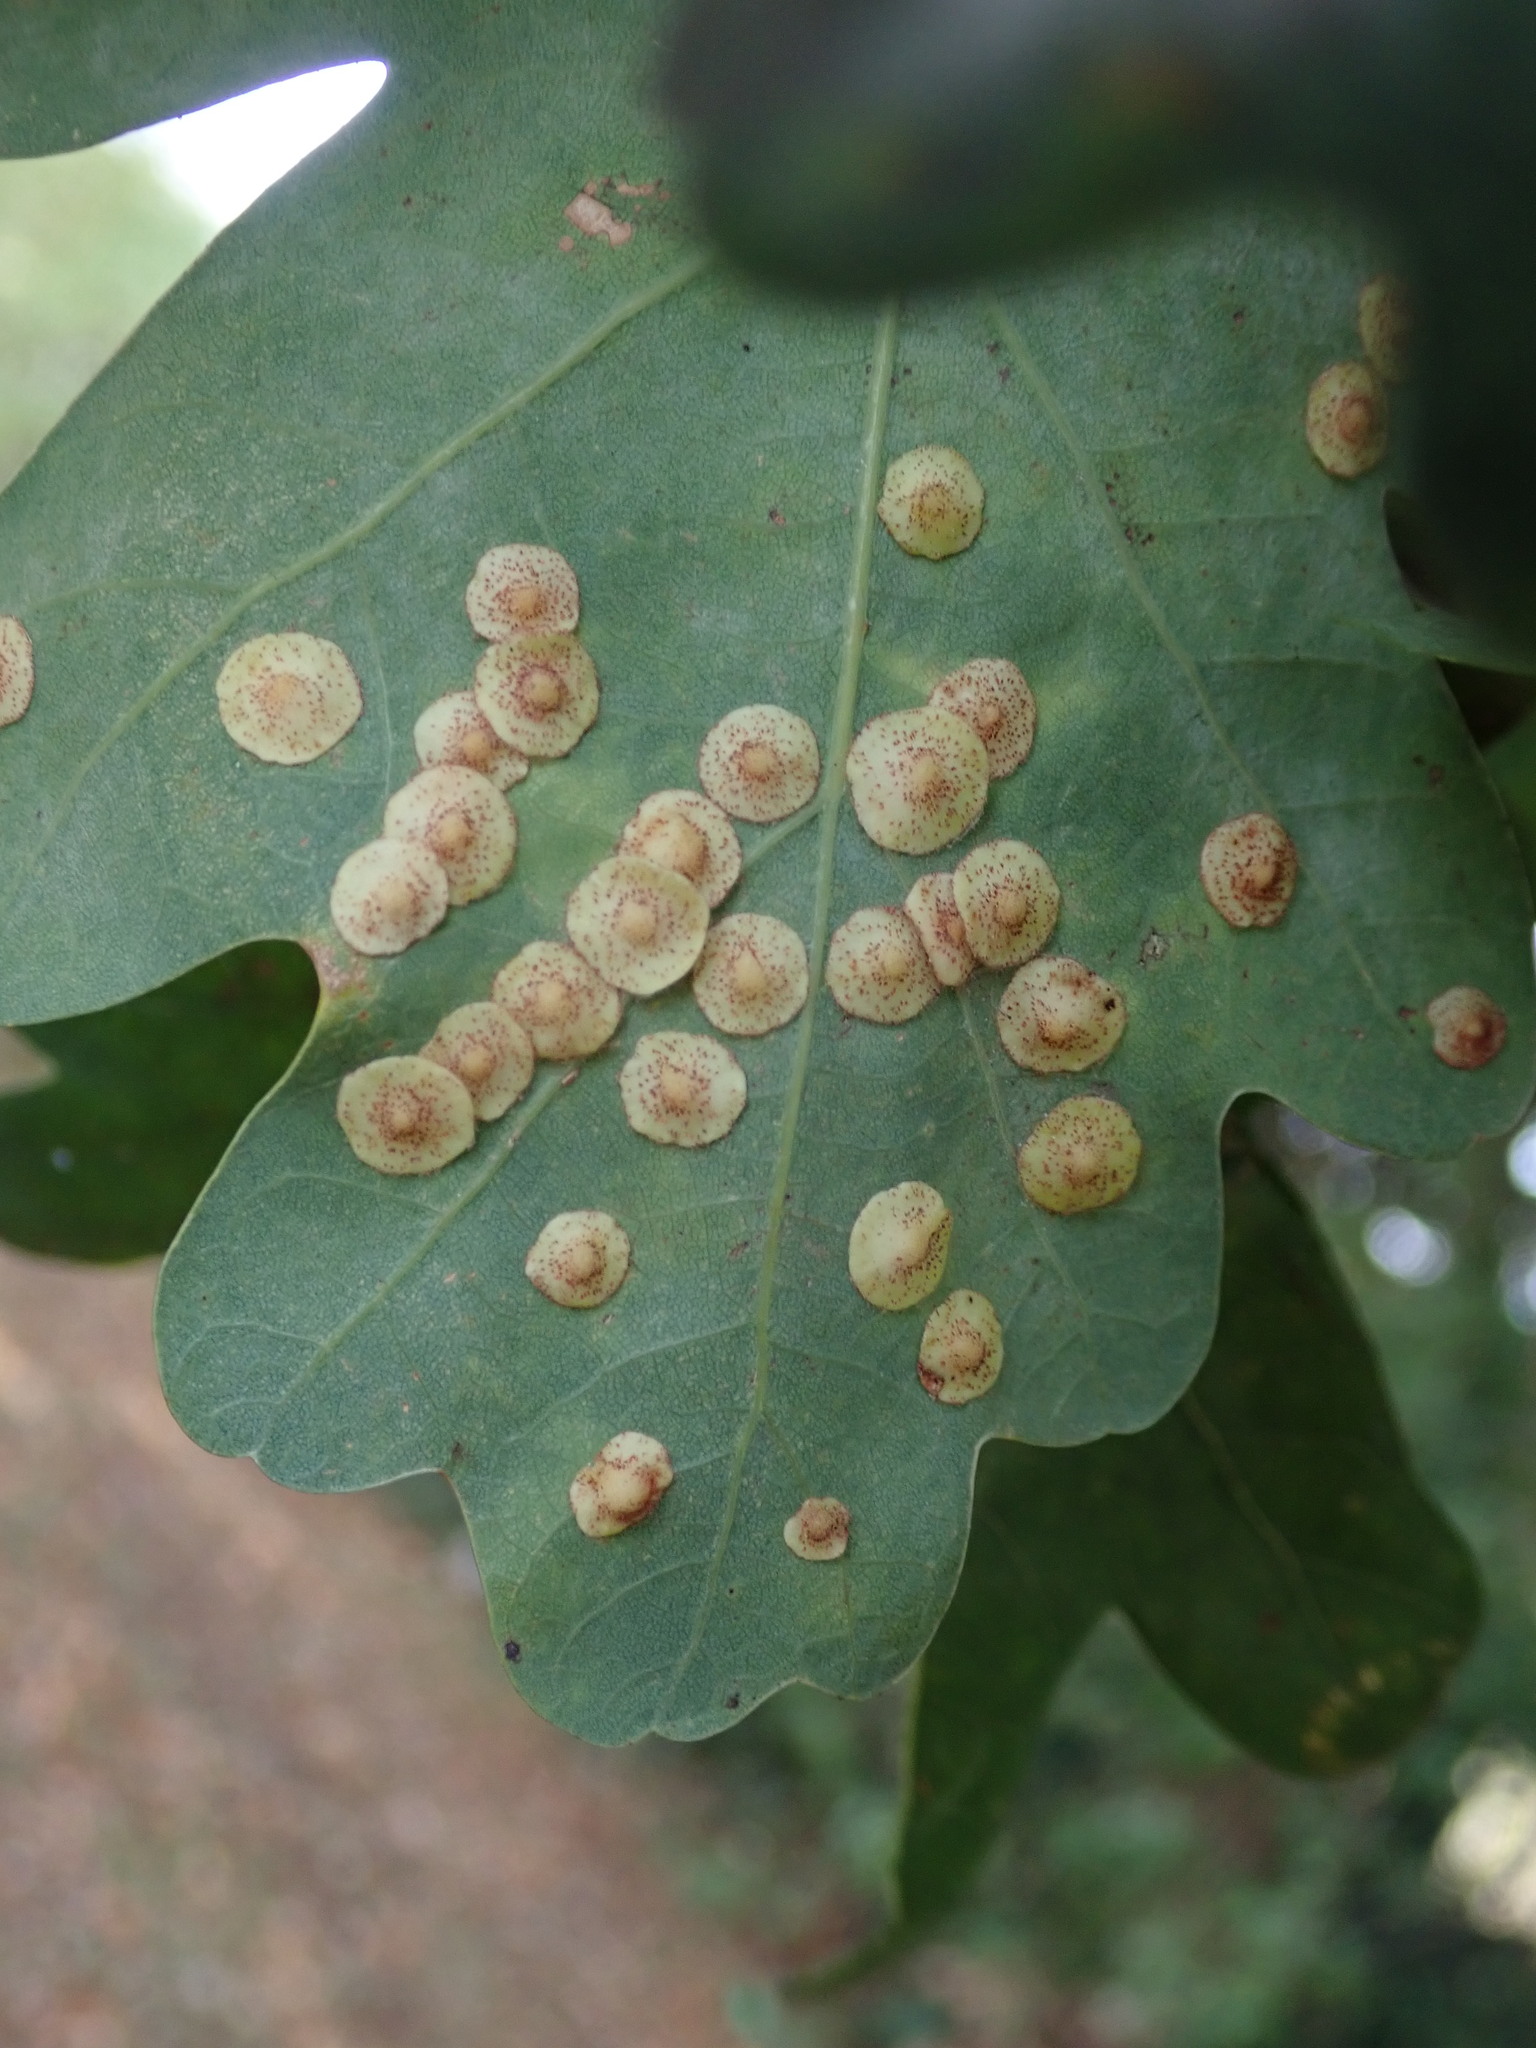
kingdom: Animalia
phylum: Arthropoda
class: Insecta
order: Hymenoptera
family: Cynipidae
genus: Neuroterus
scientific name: Neuroterus quercusbaccarum
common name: Common spangle gall
